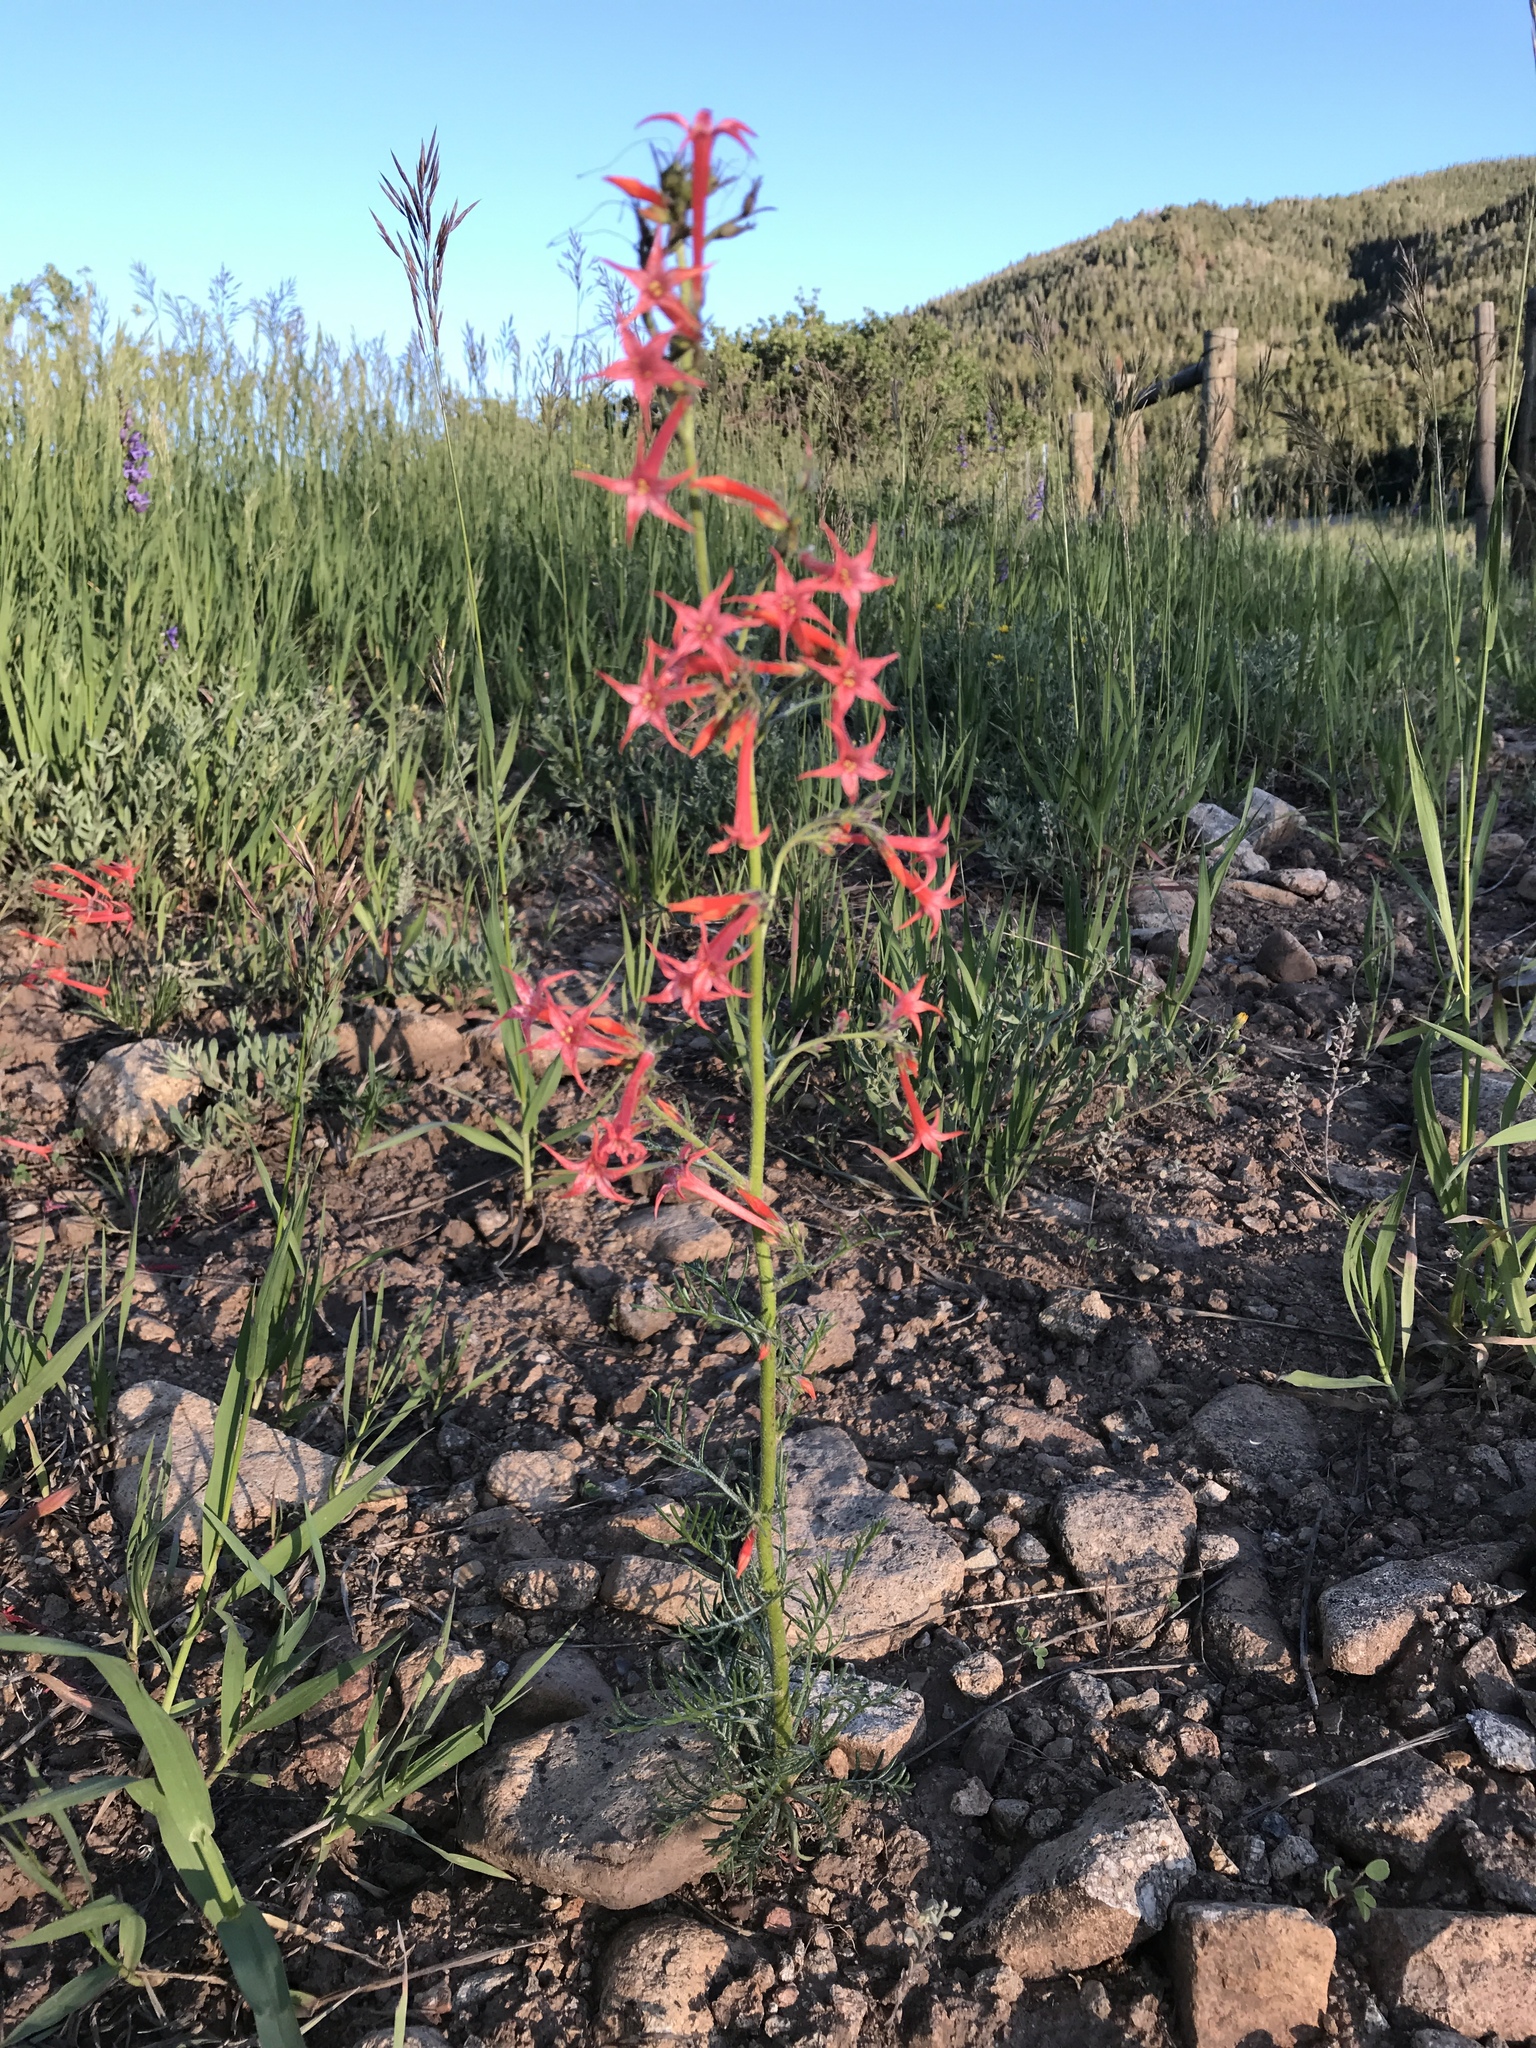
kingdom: Plantae
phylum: Tracheophyta
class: Magnoliopsida
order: Ericales
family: Polemoniaceae
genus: Ipomopsis
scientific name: Ipomopsis aggregata
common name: Scarlet gilia
